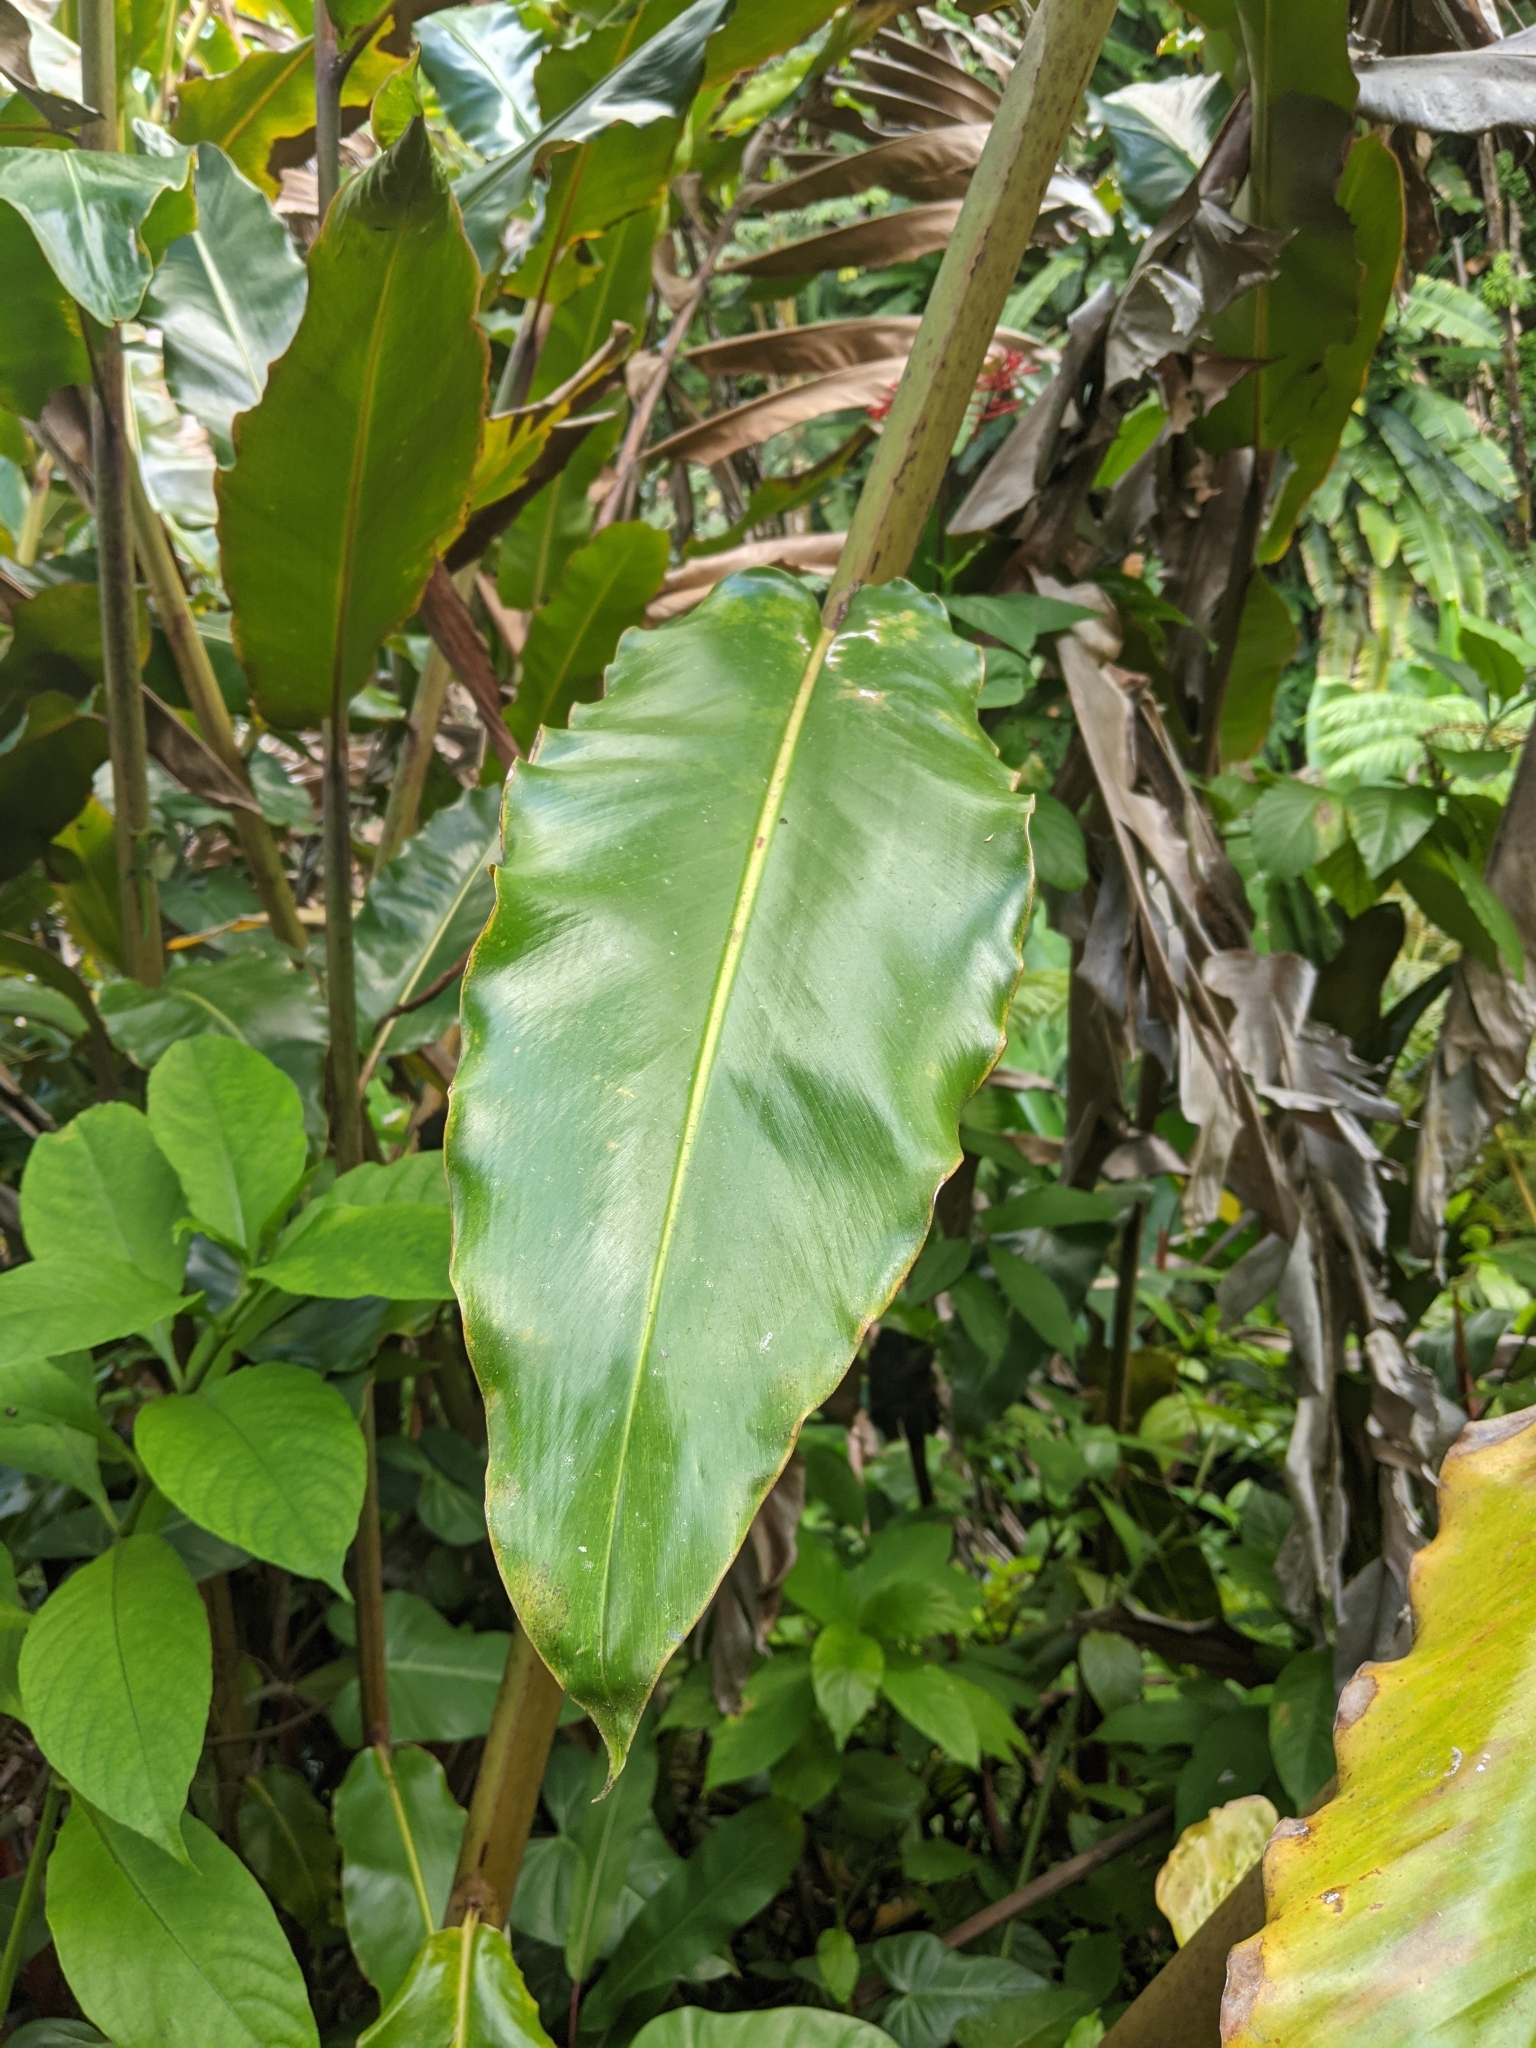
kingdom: Plantae
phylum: Tracheophyta
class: Liliopsida
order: Zingiberales
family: Zingiberaceae
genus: Etlingera
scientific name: Etlingera elatior
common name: Philippine waxflower
